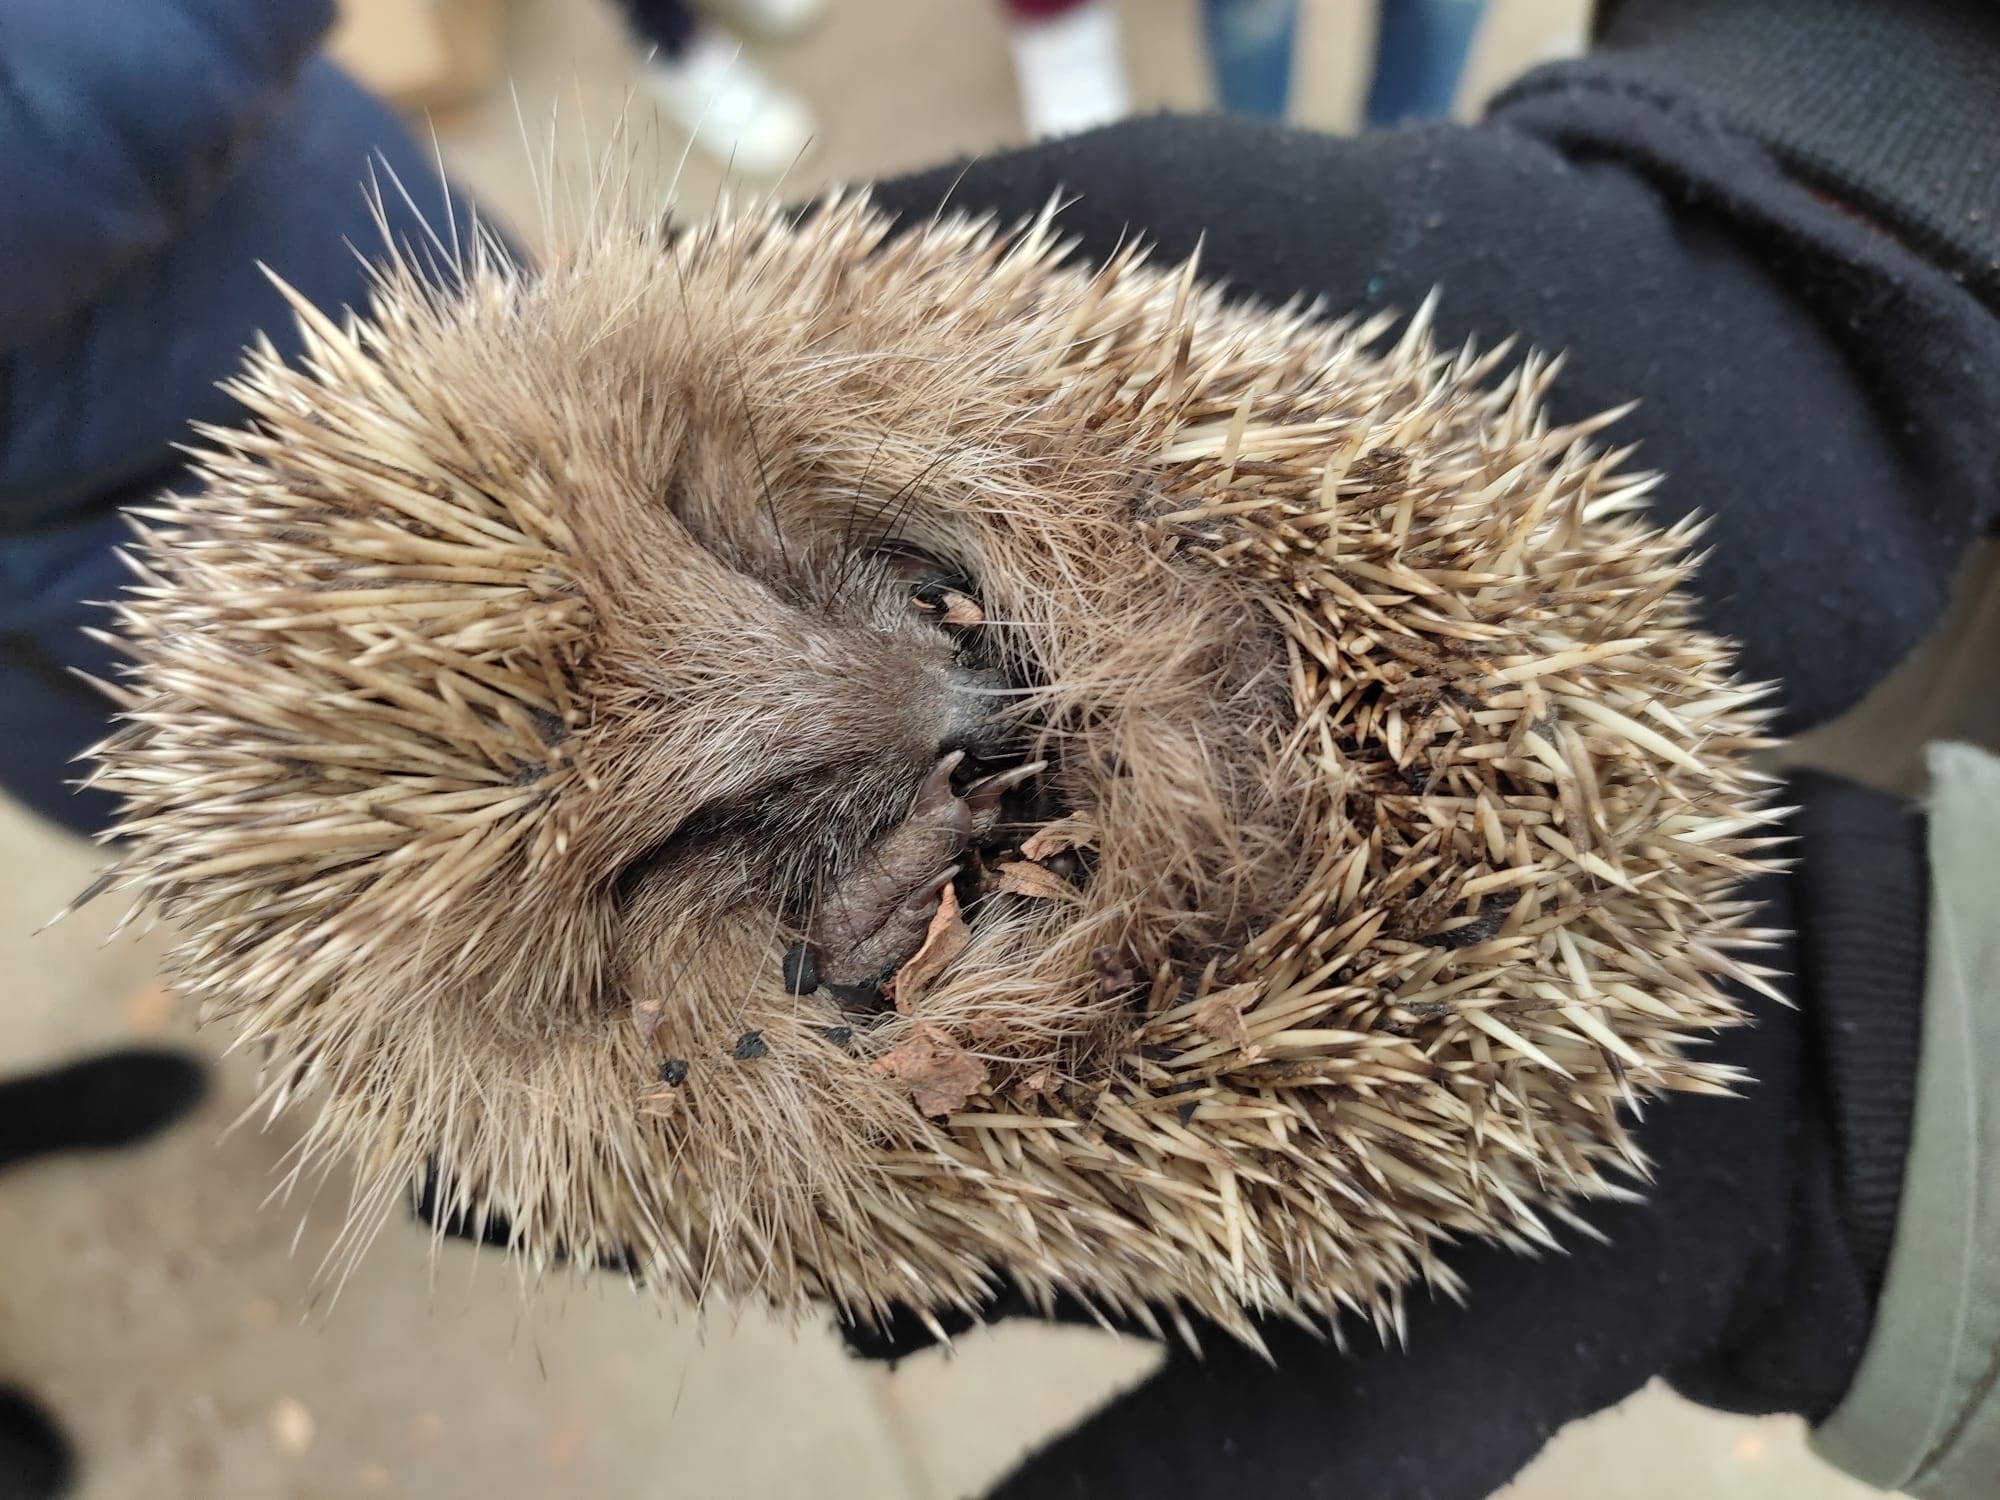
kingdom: Animalia
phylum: Chordata
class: Mammalia
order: Erinaceomorpha
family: Erinaceidae
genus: Erinaceus
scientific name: Erinaceus europaeus
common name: West european hedgehog
